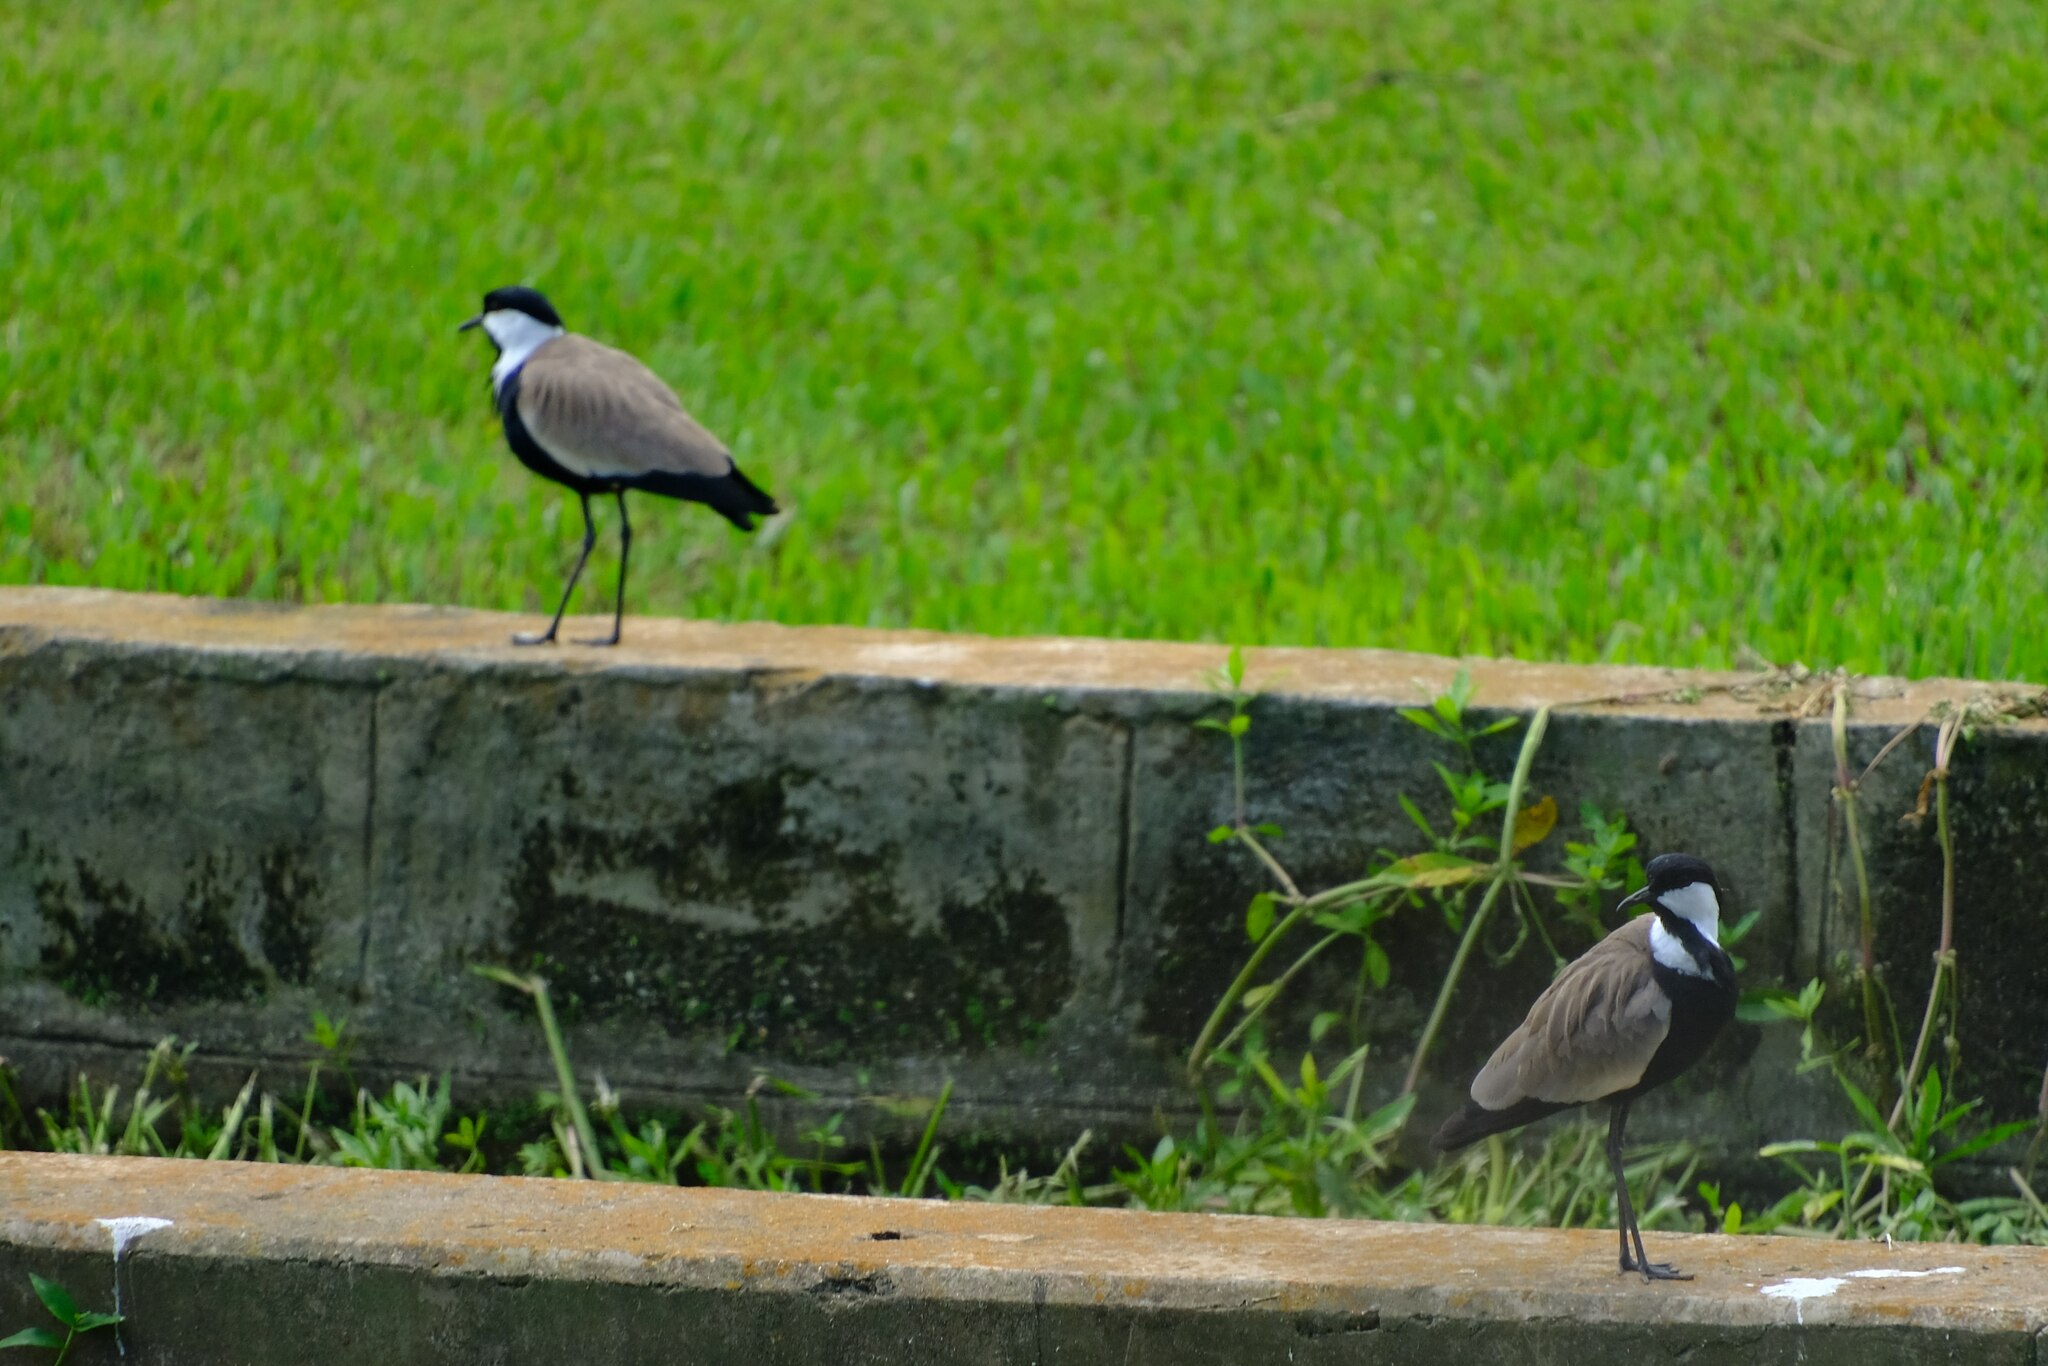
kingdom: Animalia
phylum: Chordata
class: Aves
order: Charadriiformes
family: Charadriidae
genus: Vanellus
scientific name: Vanellus spinosus
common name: Spur-winged lapwing
